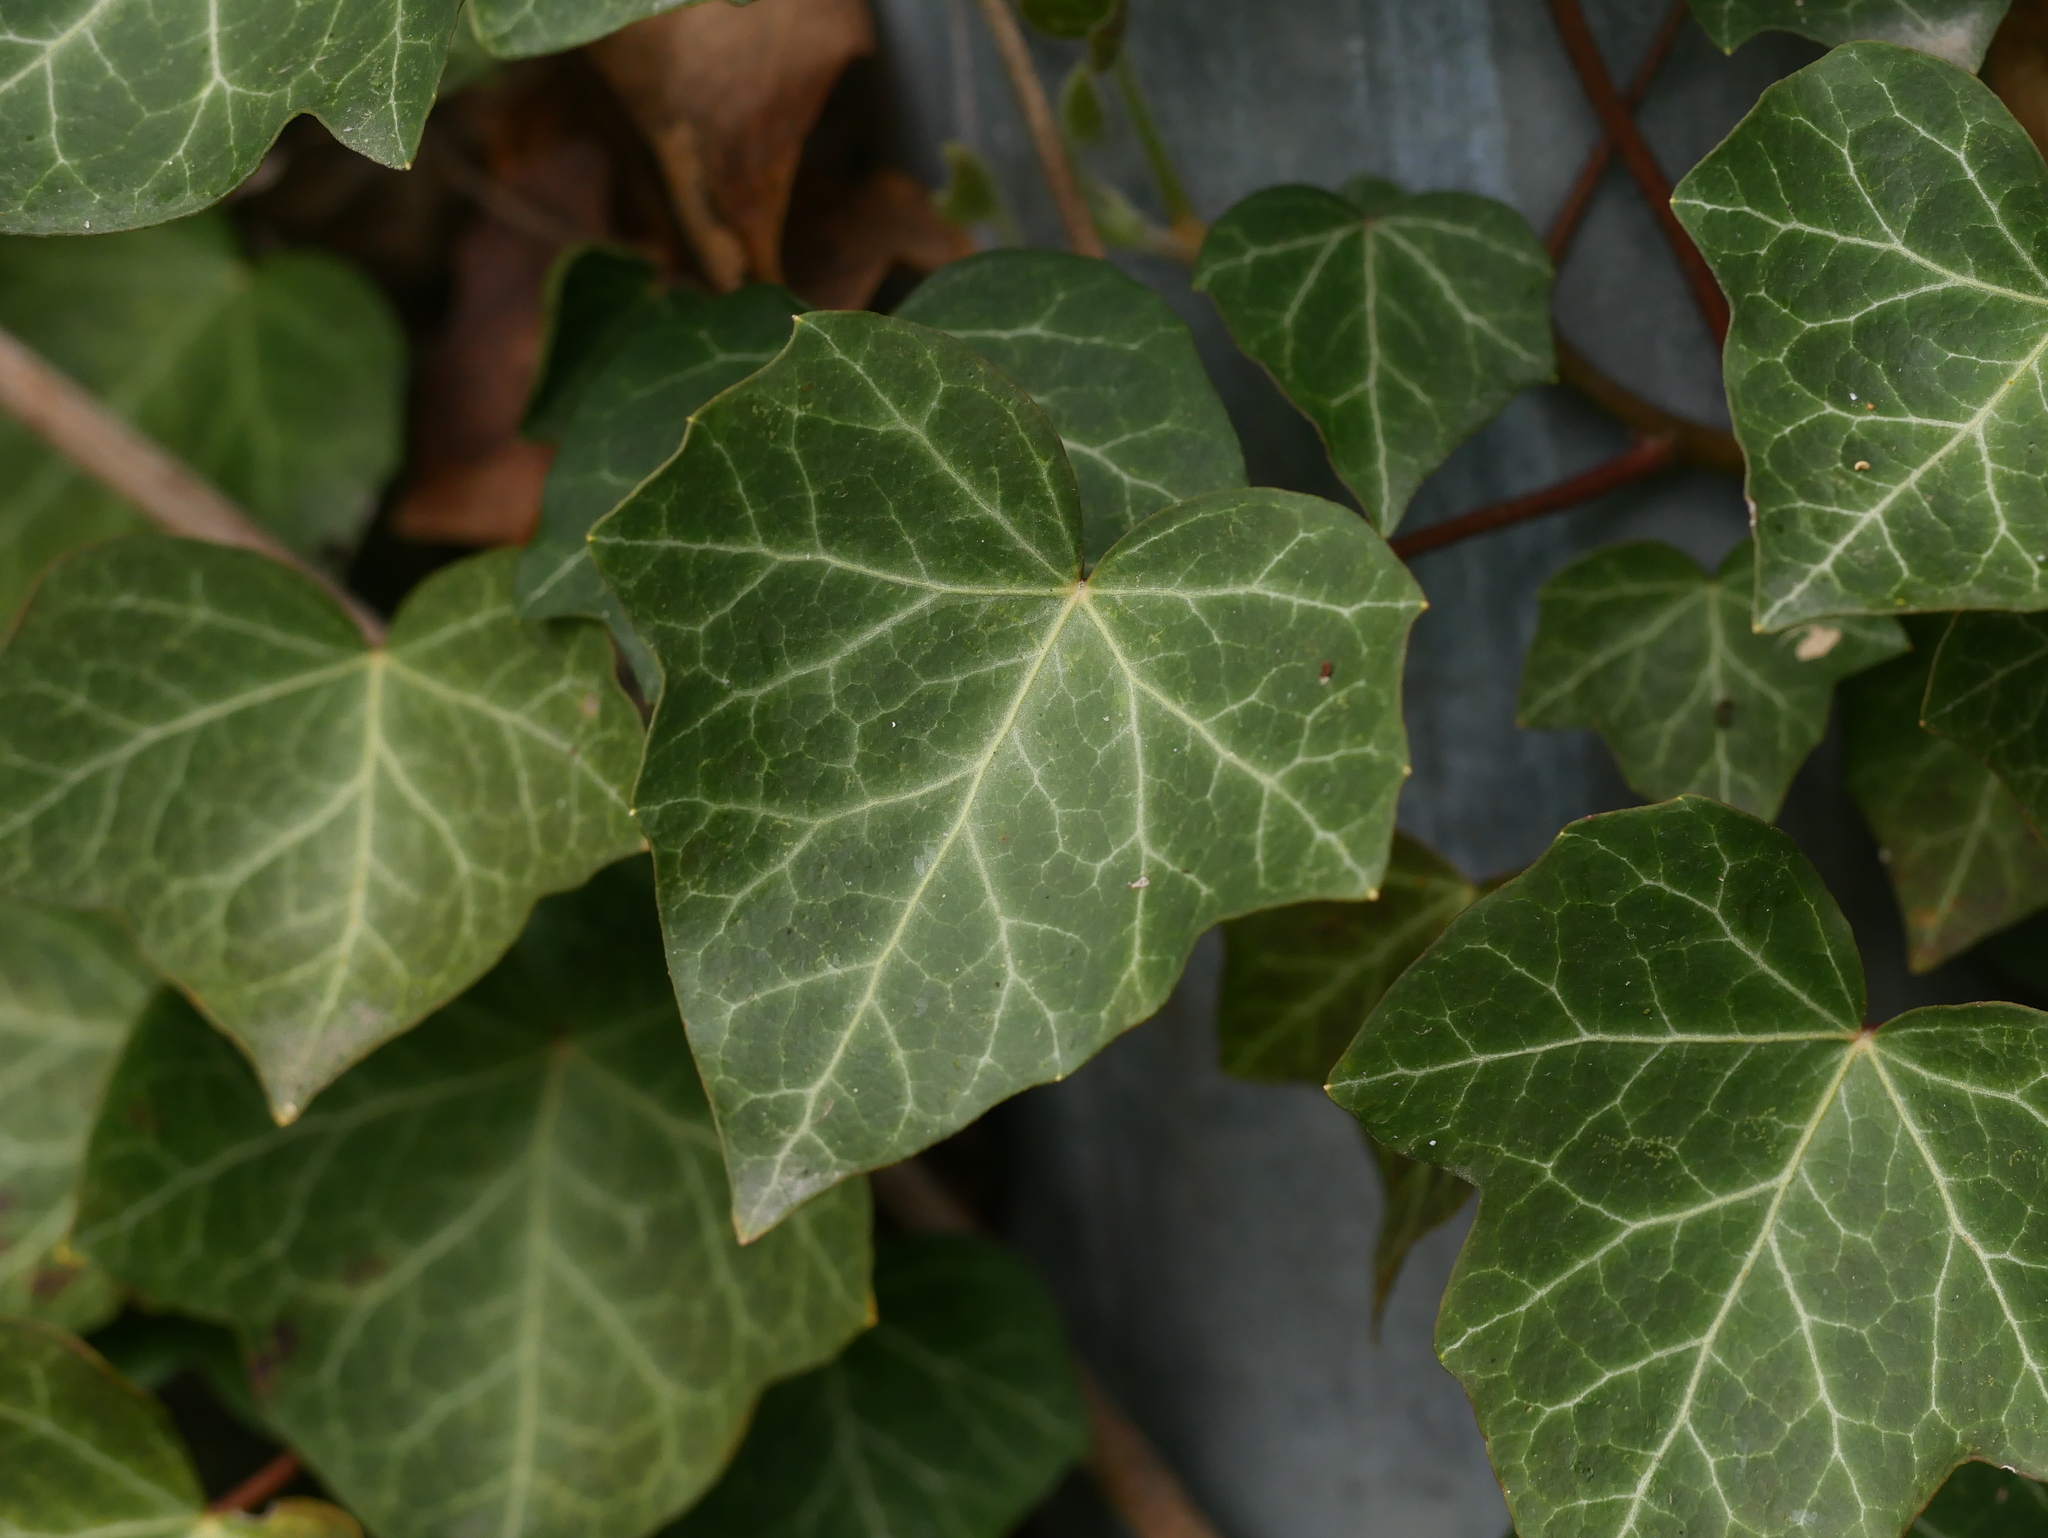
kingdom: Plantae
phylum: Tracheophyta
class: Magnoliopsida
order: Apiales
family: Araliaceae
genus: Hedera
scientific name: Hedera helix
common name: Ivy
